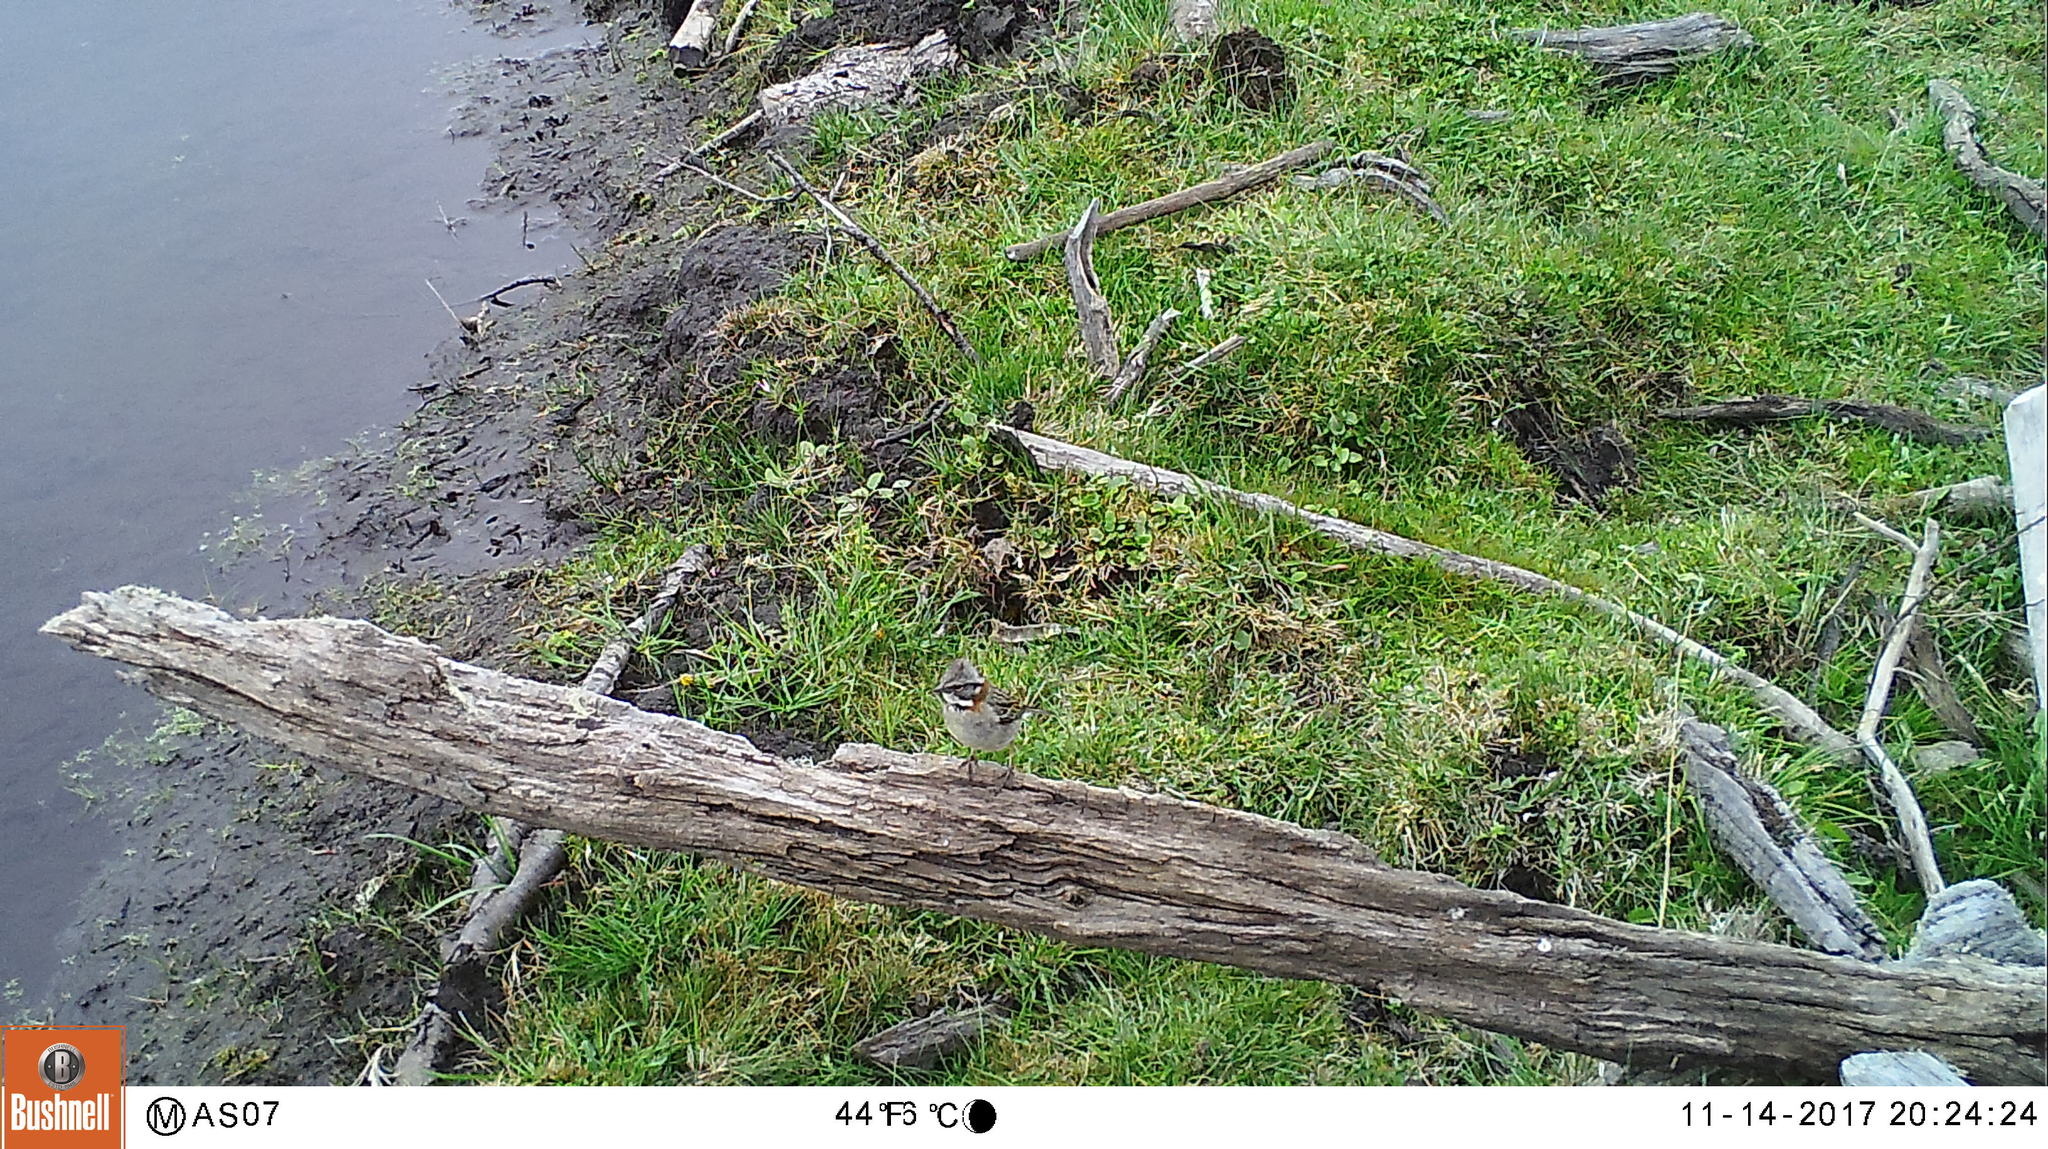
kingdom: Animalia
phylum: Chordata
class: Aves
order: Passeriformes
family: Passerellidae
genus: Zonotrichia
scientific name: Zonotrichia capensis
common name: Rufous-collared sparrow
